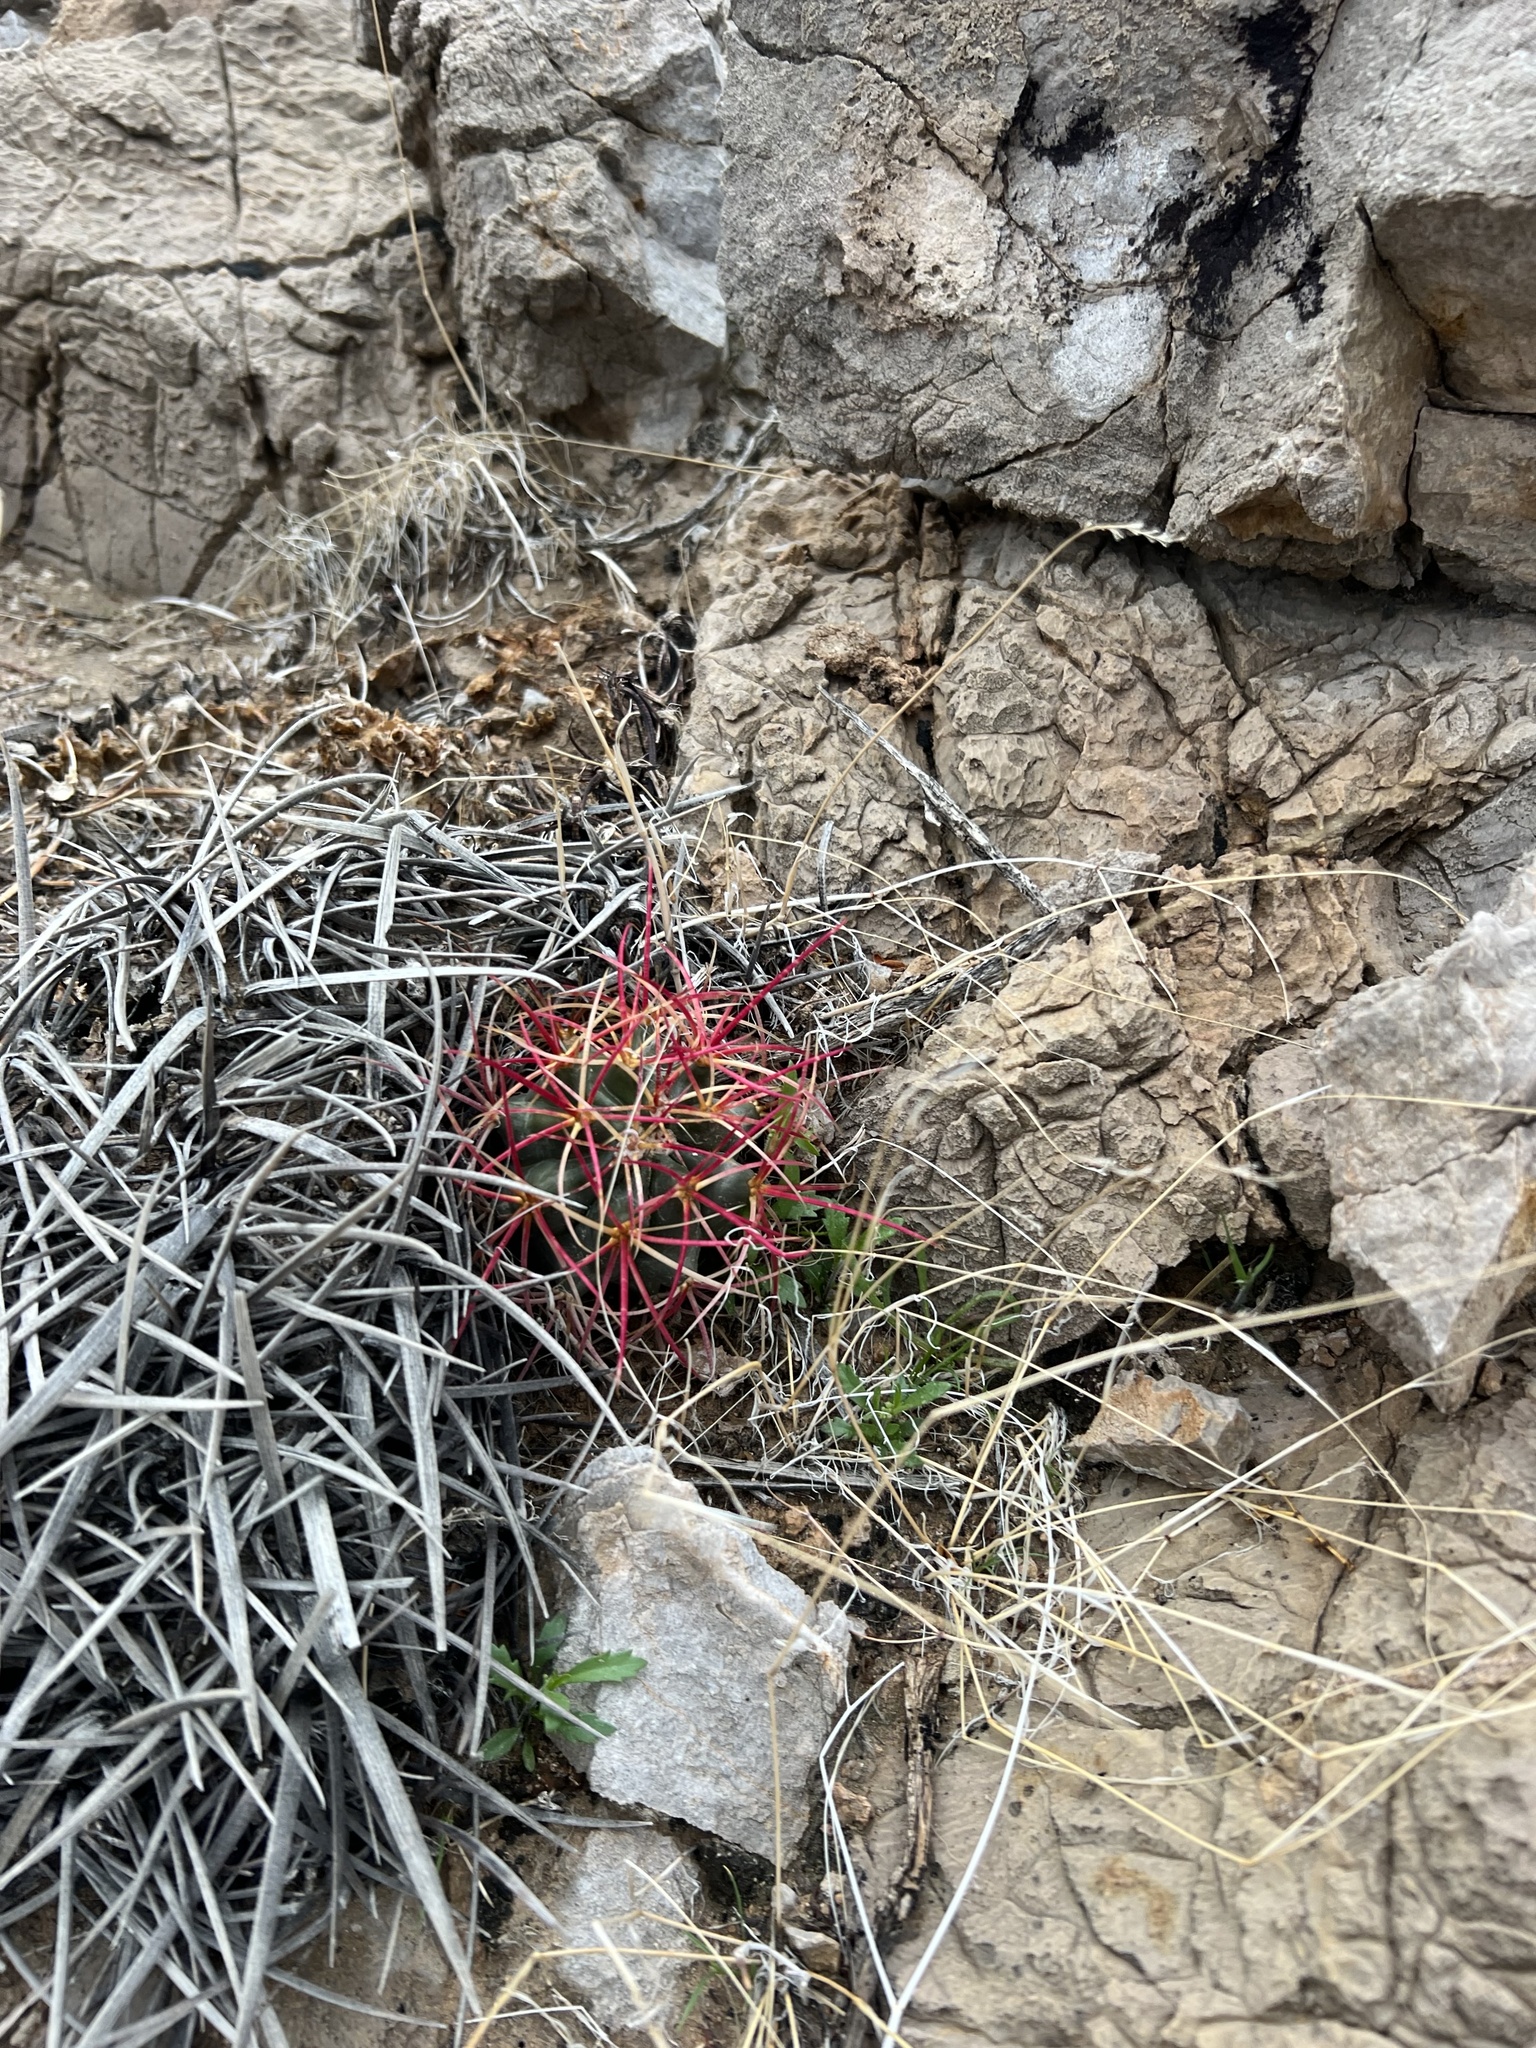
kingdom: Plantae
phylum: Tracheophyta
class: Magnoliopsida
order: Caryophyllales
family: Cactaceae
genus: Ferocactus
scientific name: Ferocactus cylindraceus
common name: California barrel cactus
